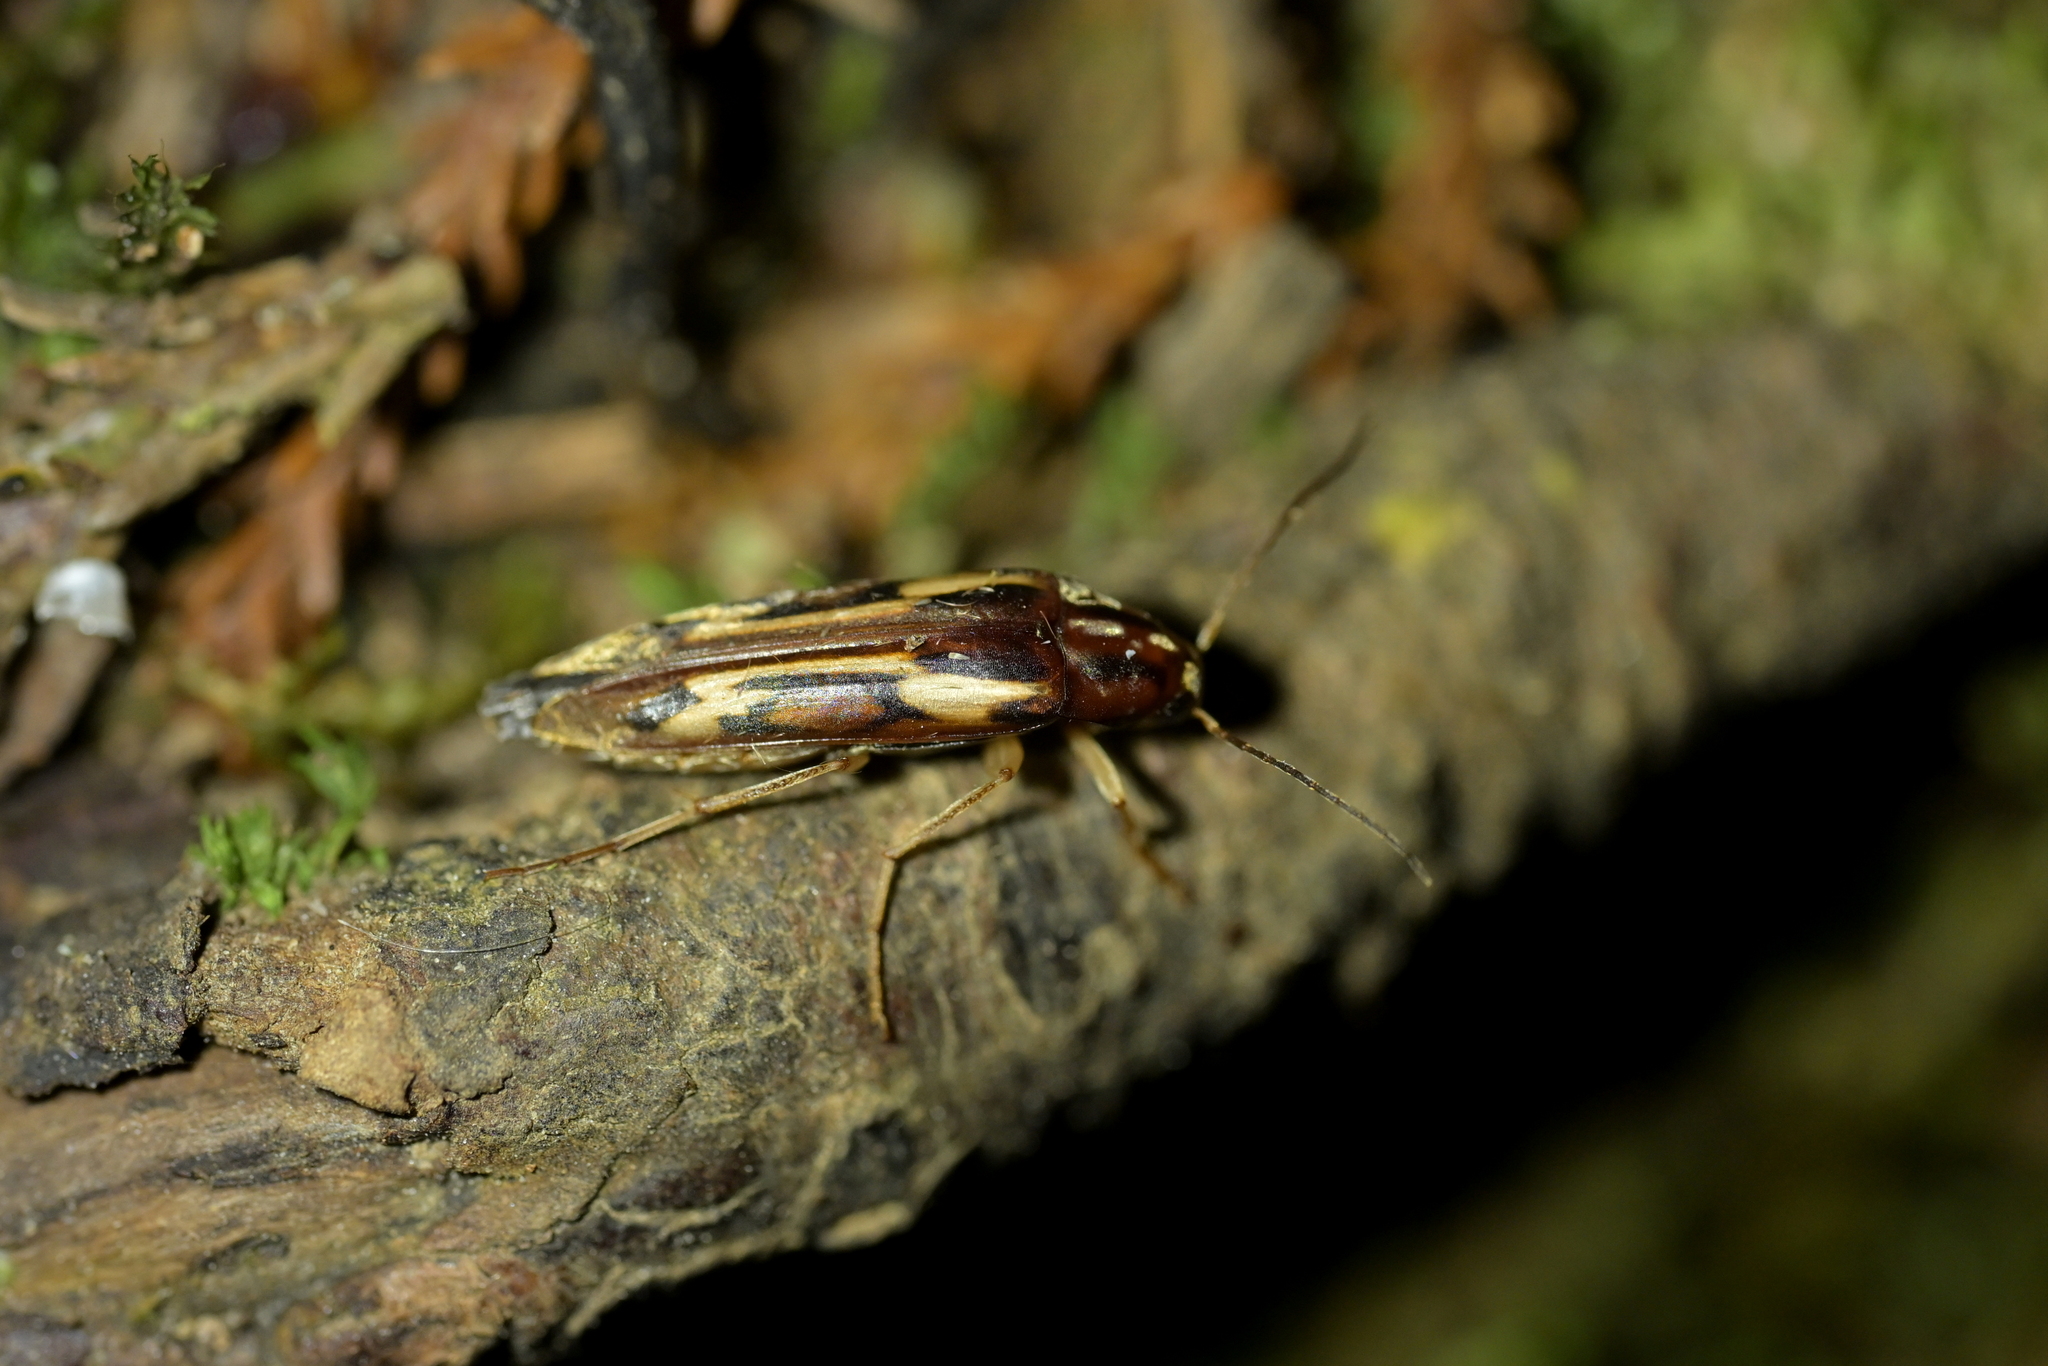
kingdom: Animalia
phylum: Arthropoda
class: Insecta
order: Neuroptera
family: Mesochrysopidae
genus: Allopterus
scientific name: Allopterus
